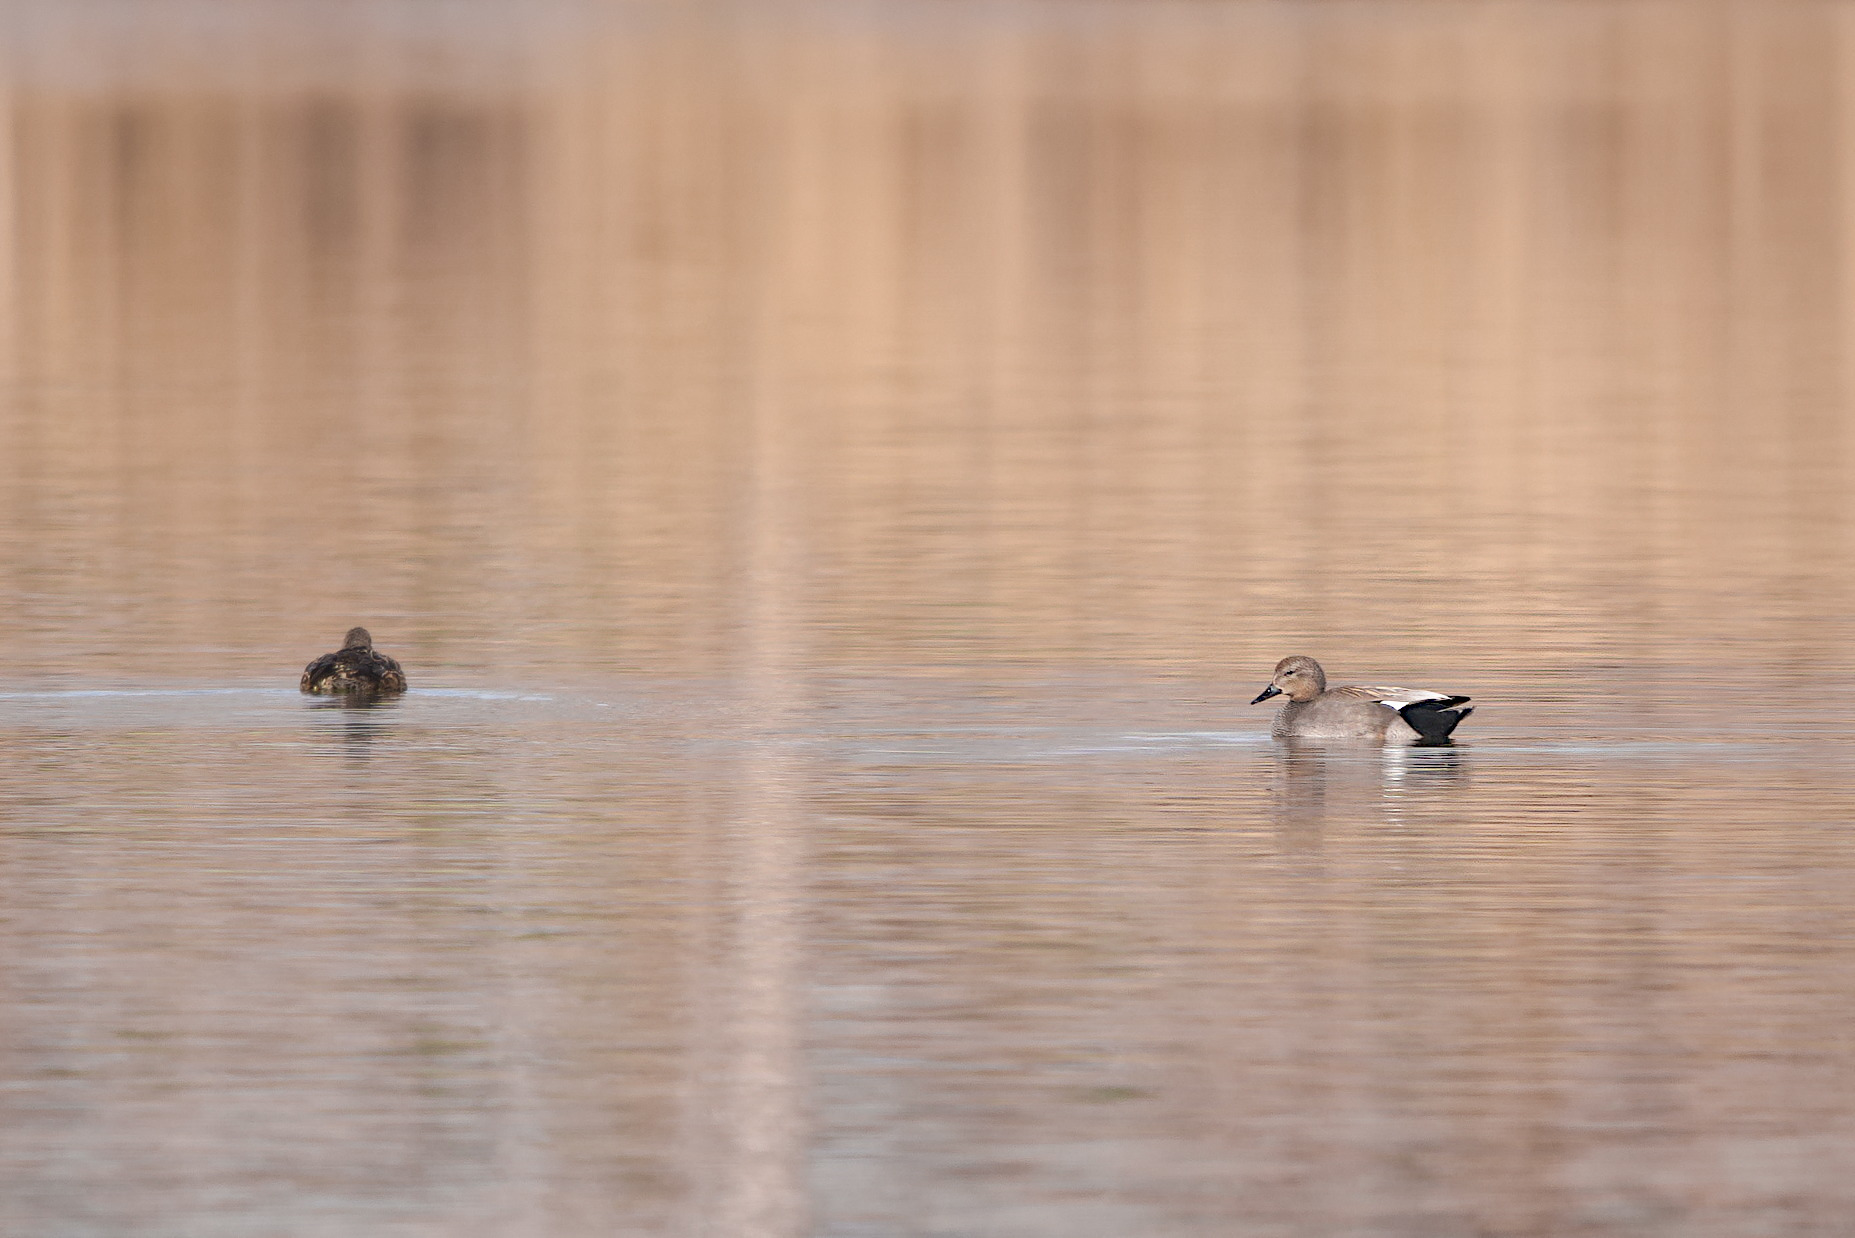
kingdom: Animalia
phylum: Chordata
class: Aves
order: Anseriformes
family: Anatidae
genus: Mareca
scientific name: Mareca strepera
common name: Gadwall
